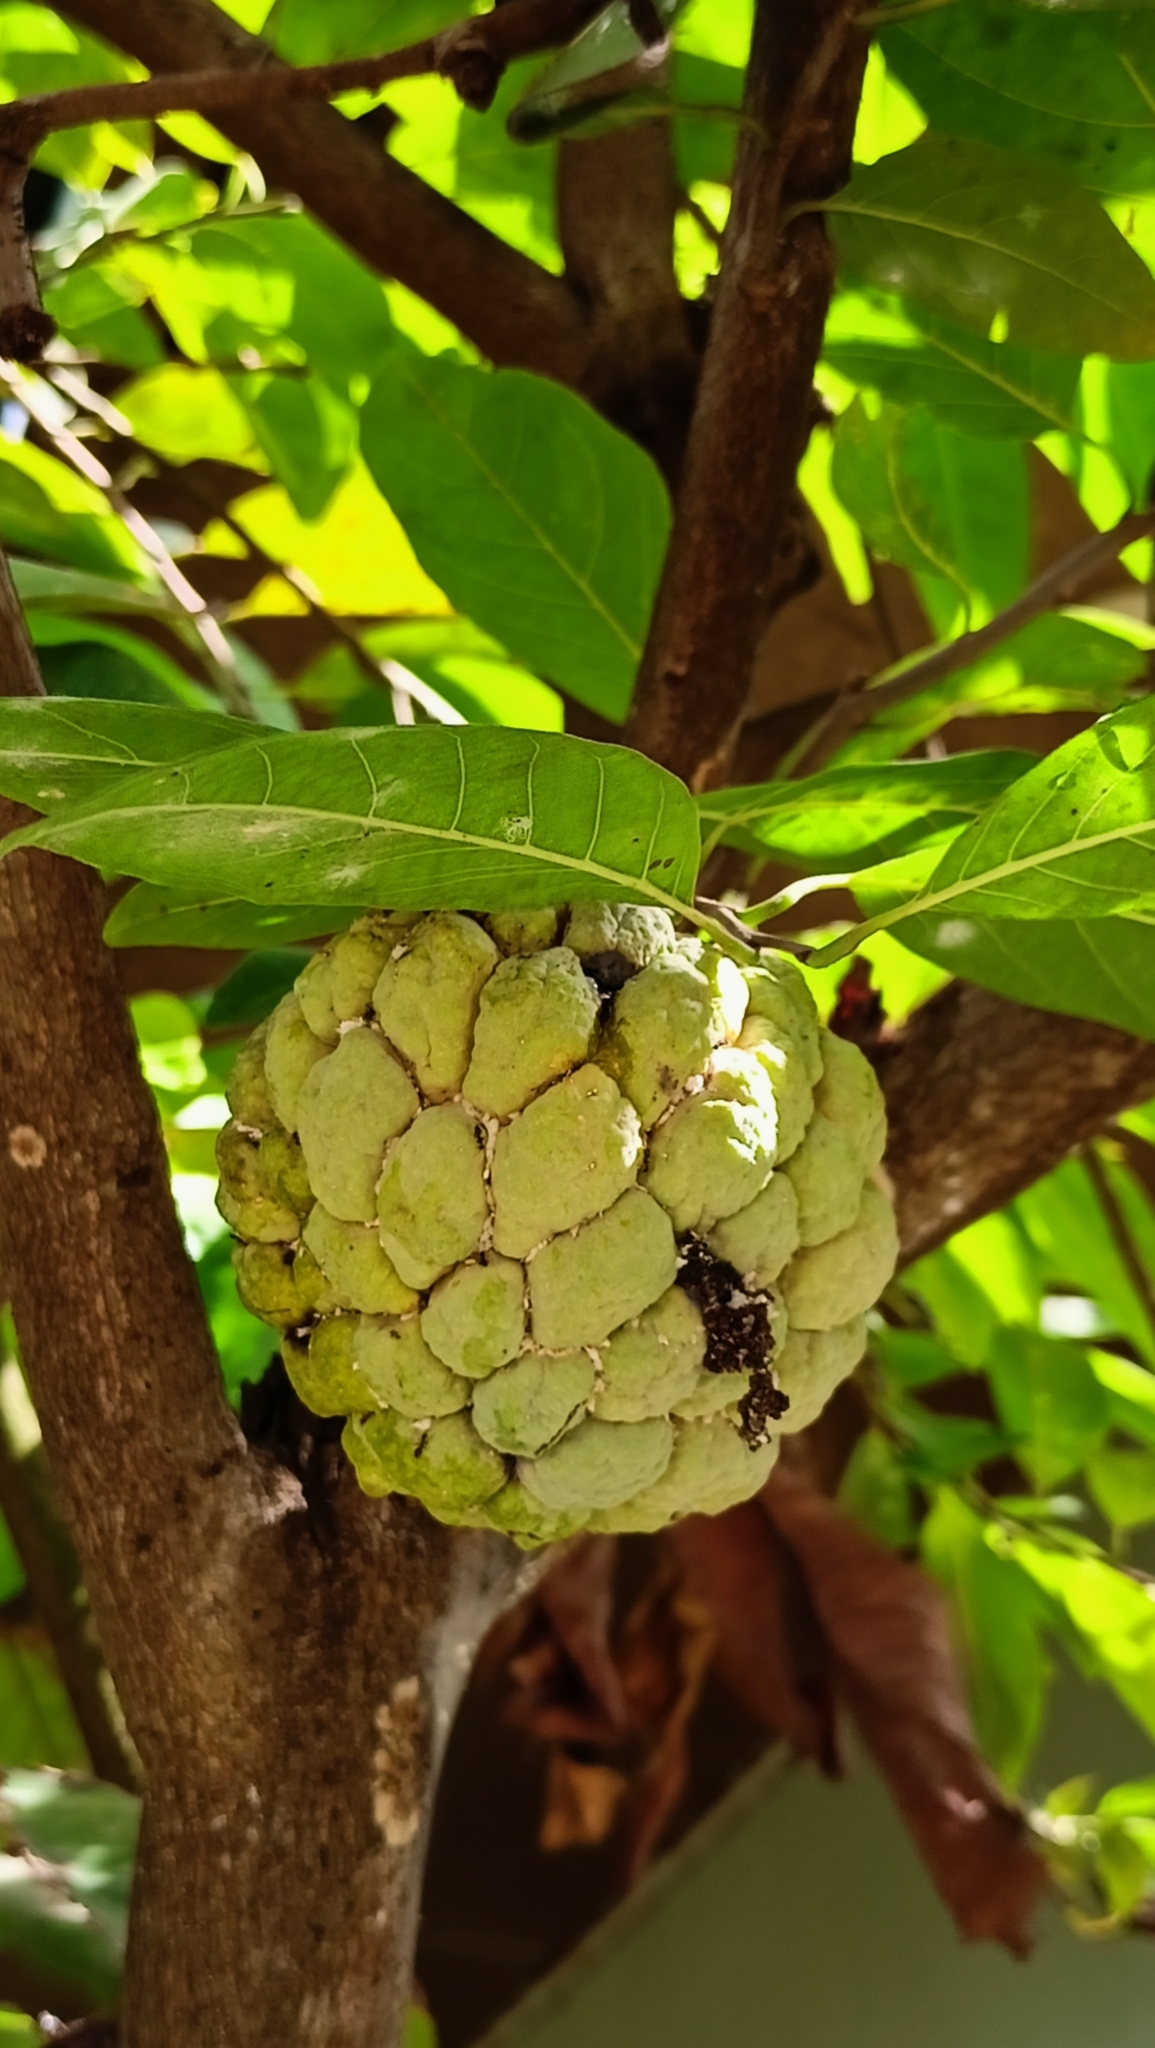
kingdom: Plantae
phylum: Tracheophyta
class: Magnoliopsida
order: Magnoliales
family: Annonaceae
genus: Annona
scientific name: Annona squamosa
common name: Custard-apple
